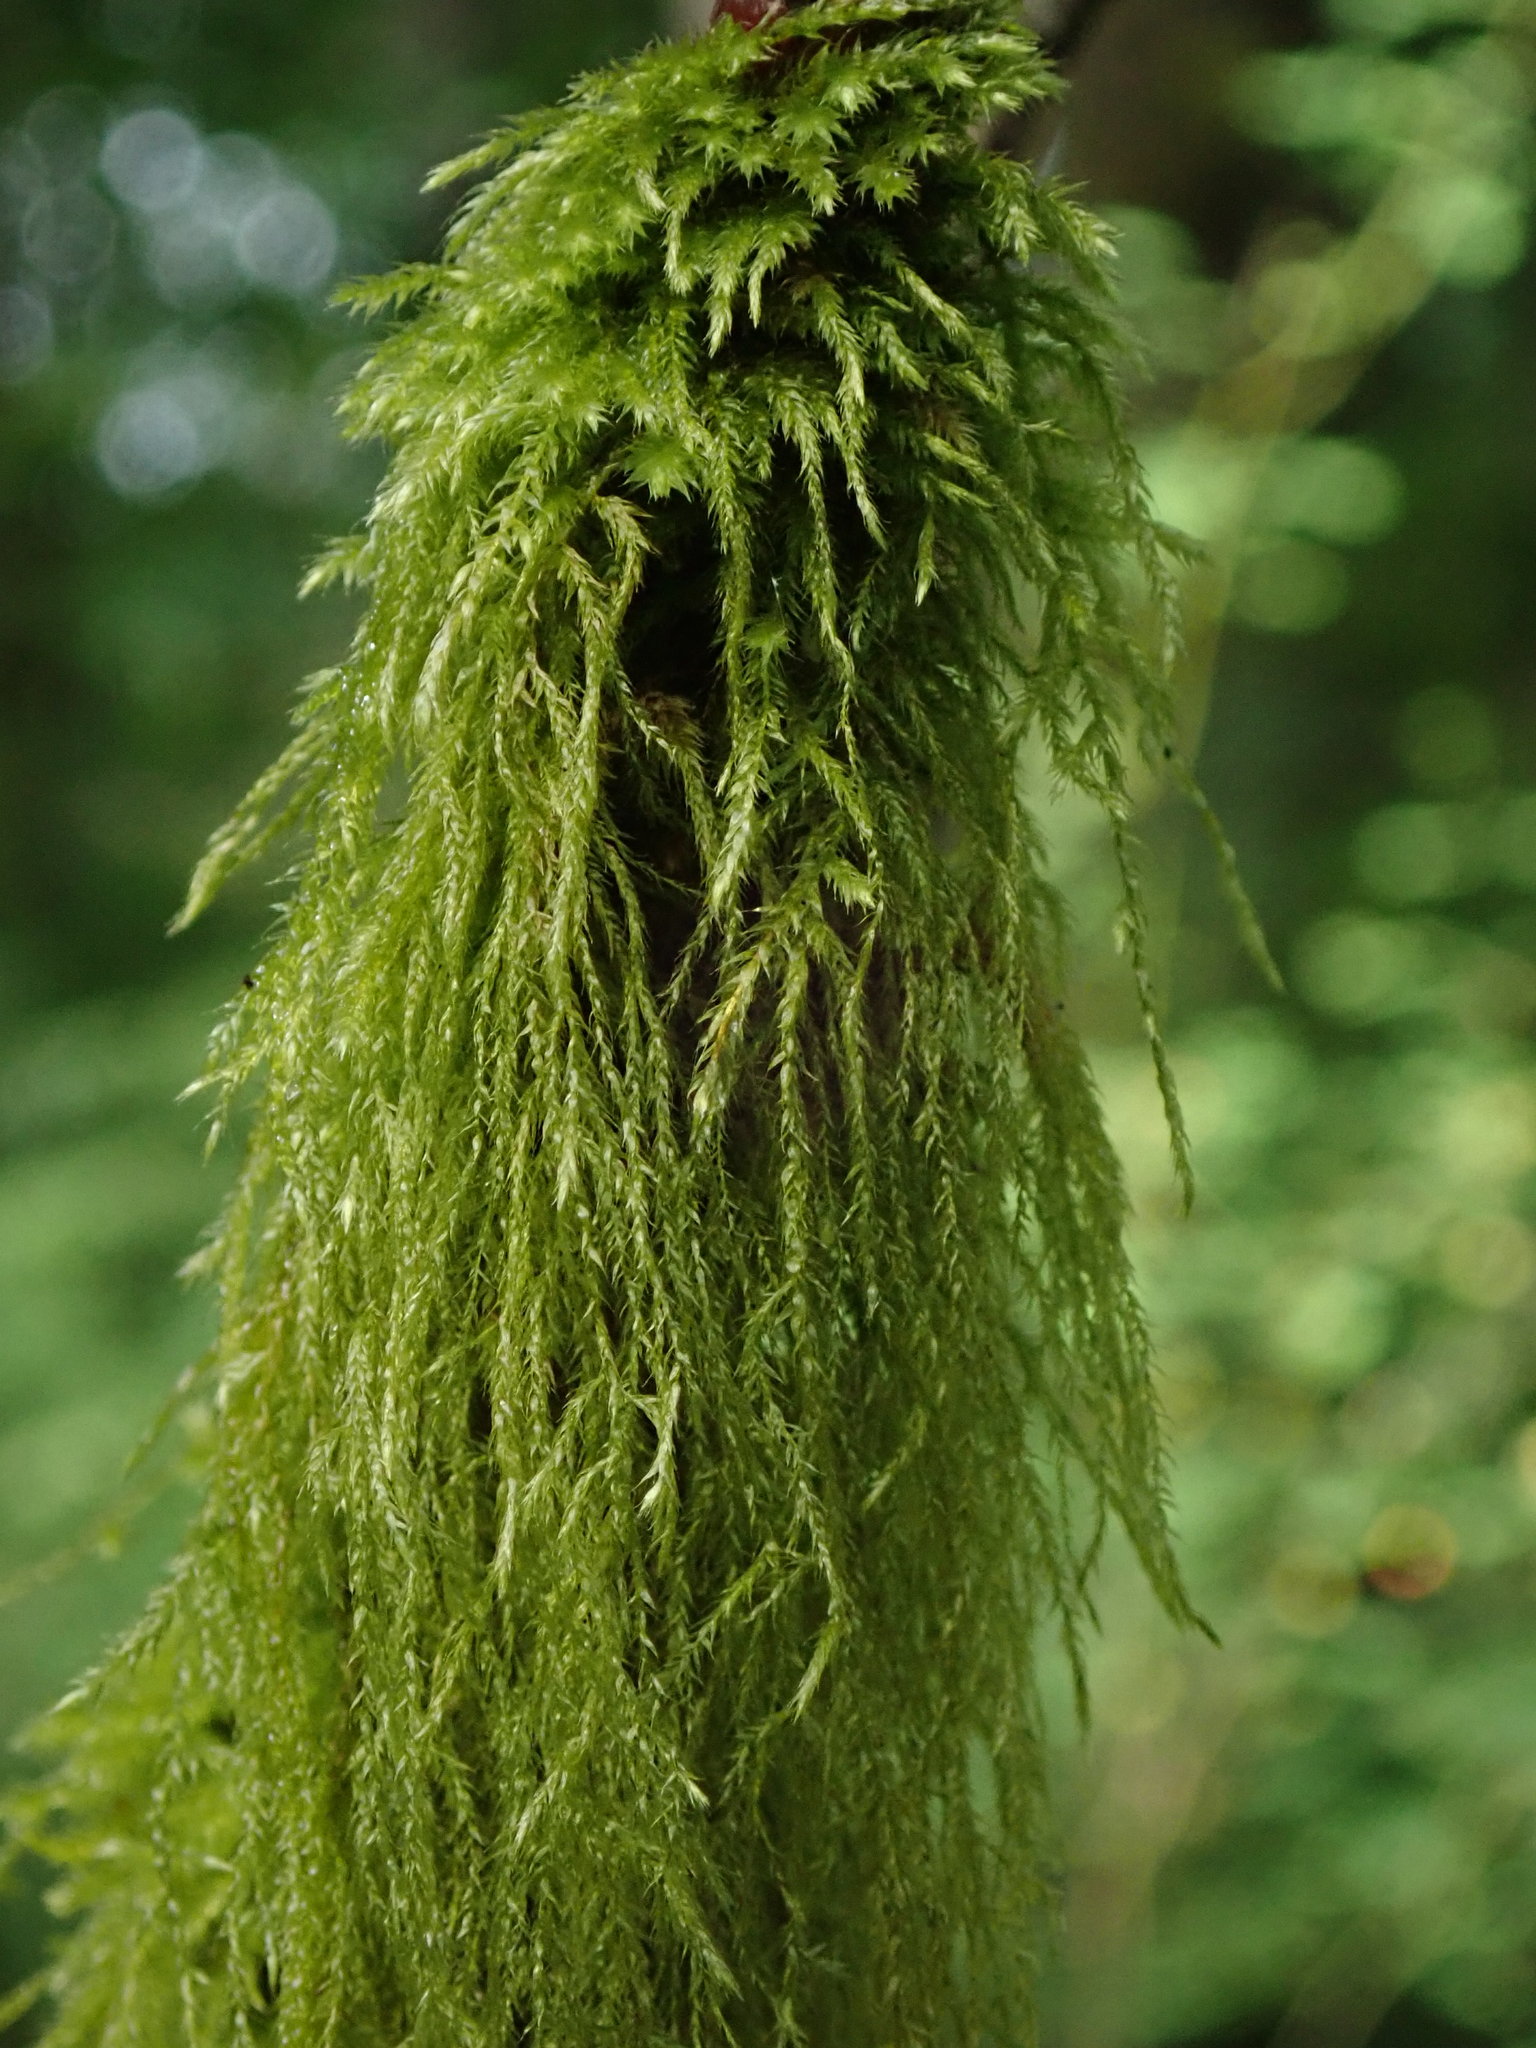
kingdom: Plantae
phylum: Bryophyta
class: Bryopsida
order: Hypnales
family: Lembophyllaceae
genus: Pseudisothecium
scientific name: Pseudisothecium stoloniferum
